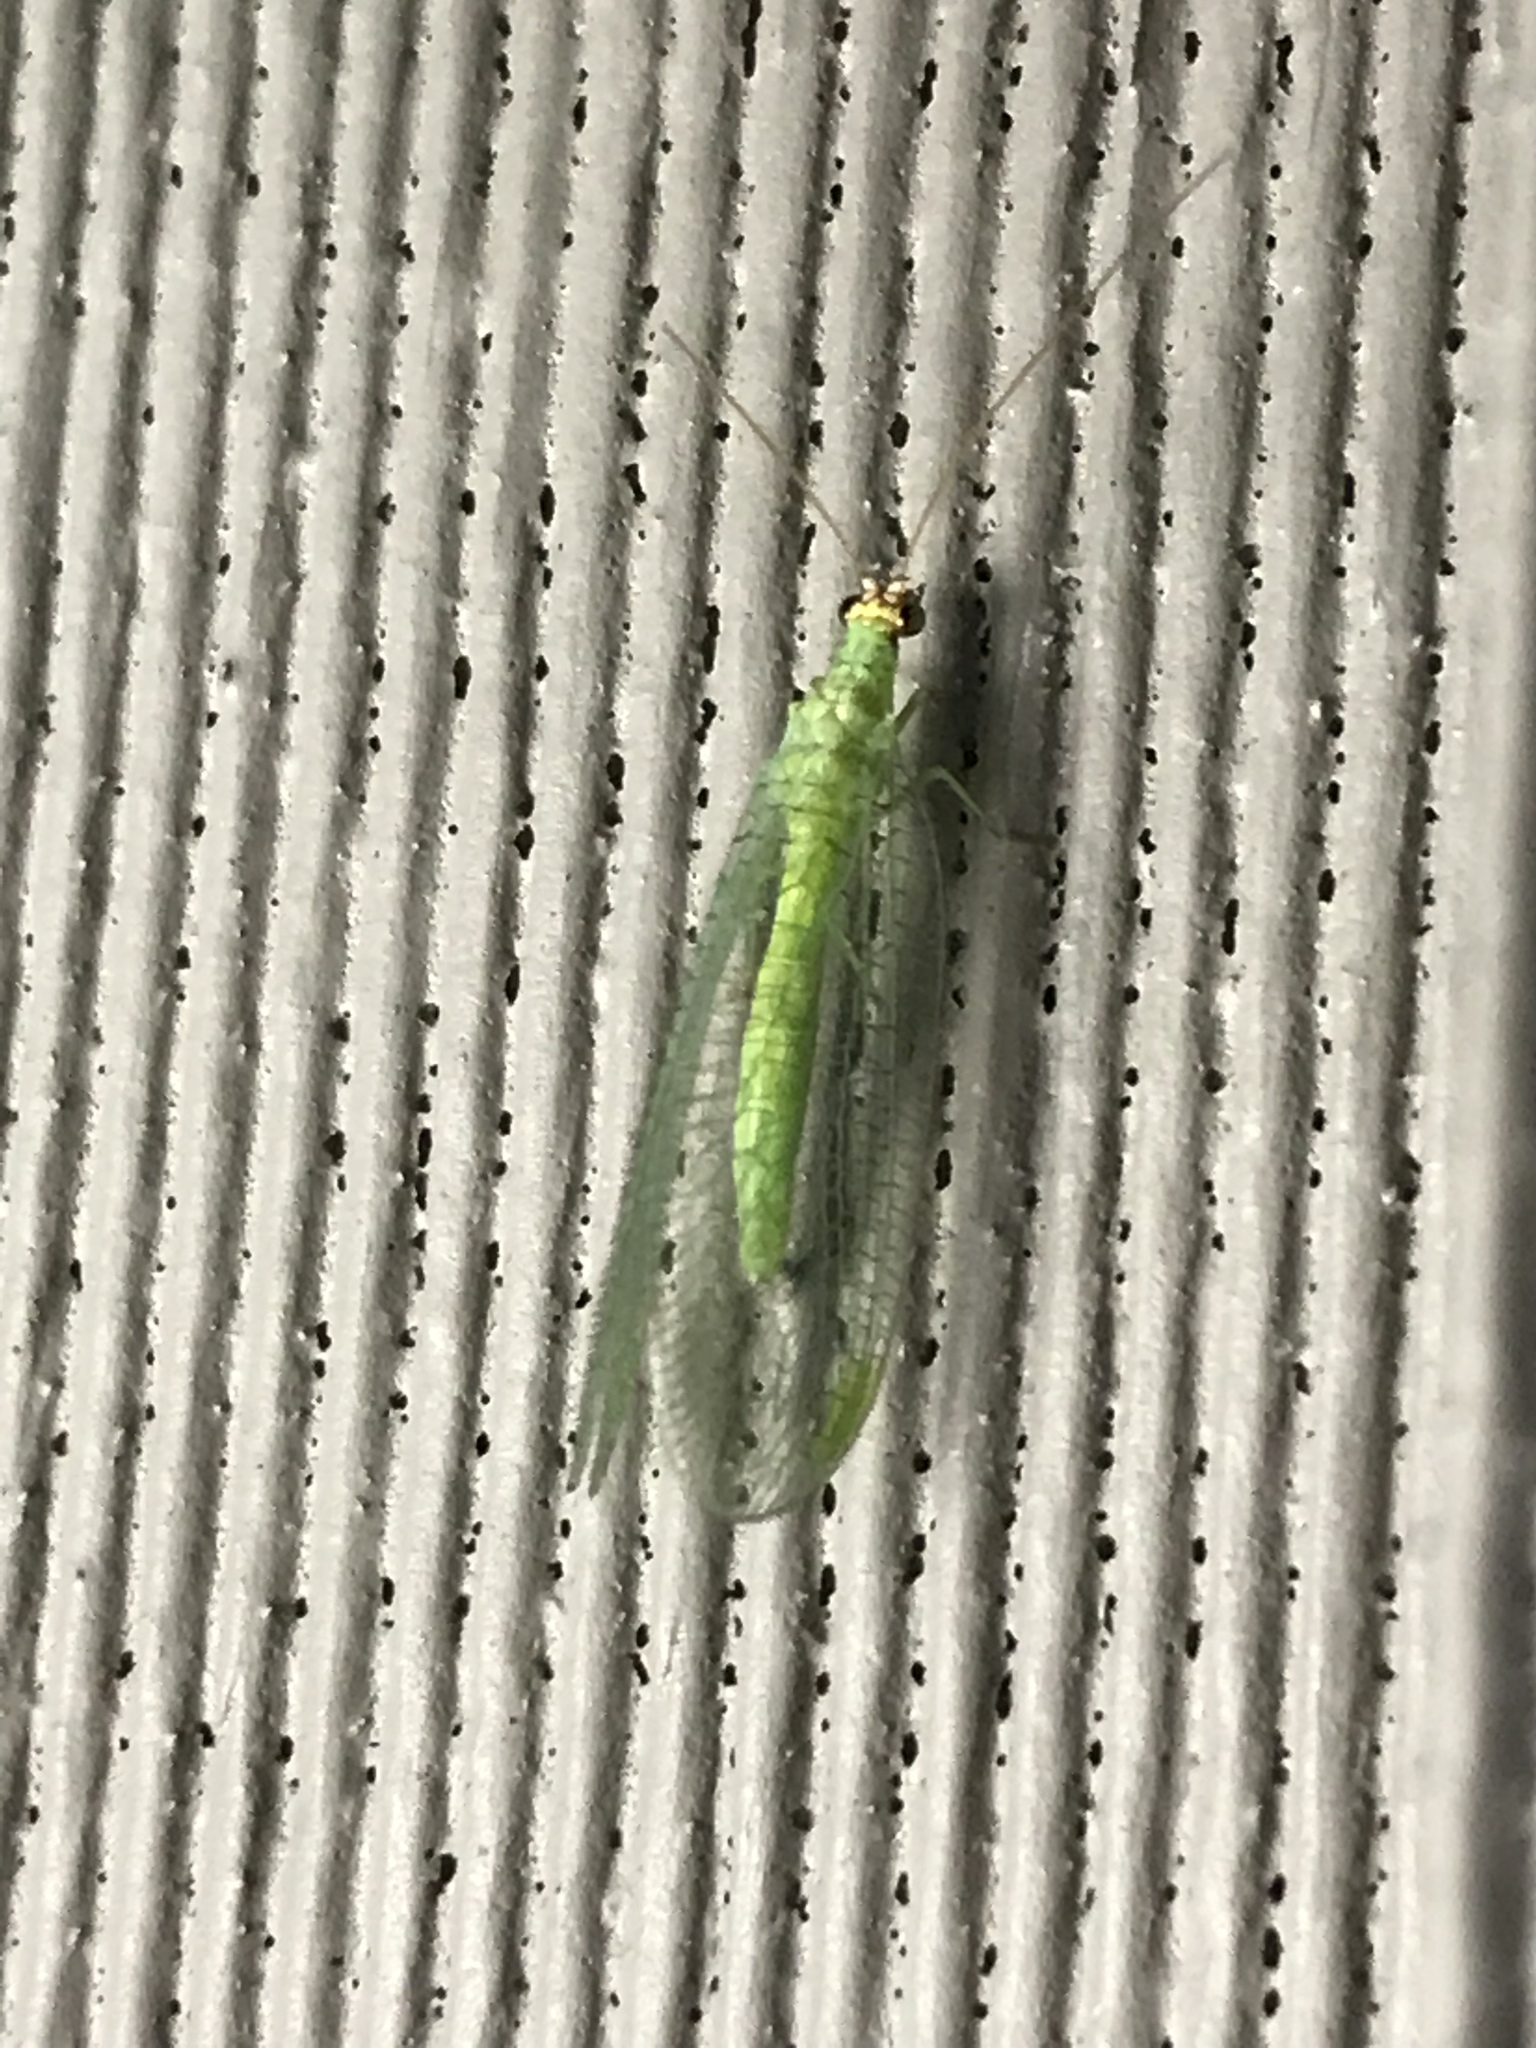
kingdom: Animalia
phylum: Arthropoda
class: Insecta
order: Neuroptera
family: Chrysopidae
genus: Chrysopa
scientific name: Chrysopa oculata
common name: Golden-eyed lacewing
